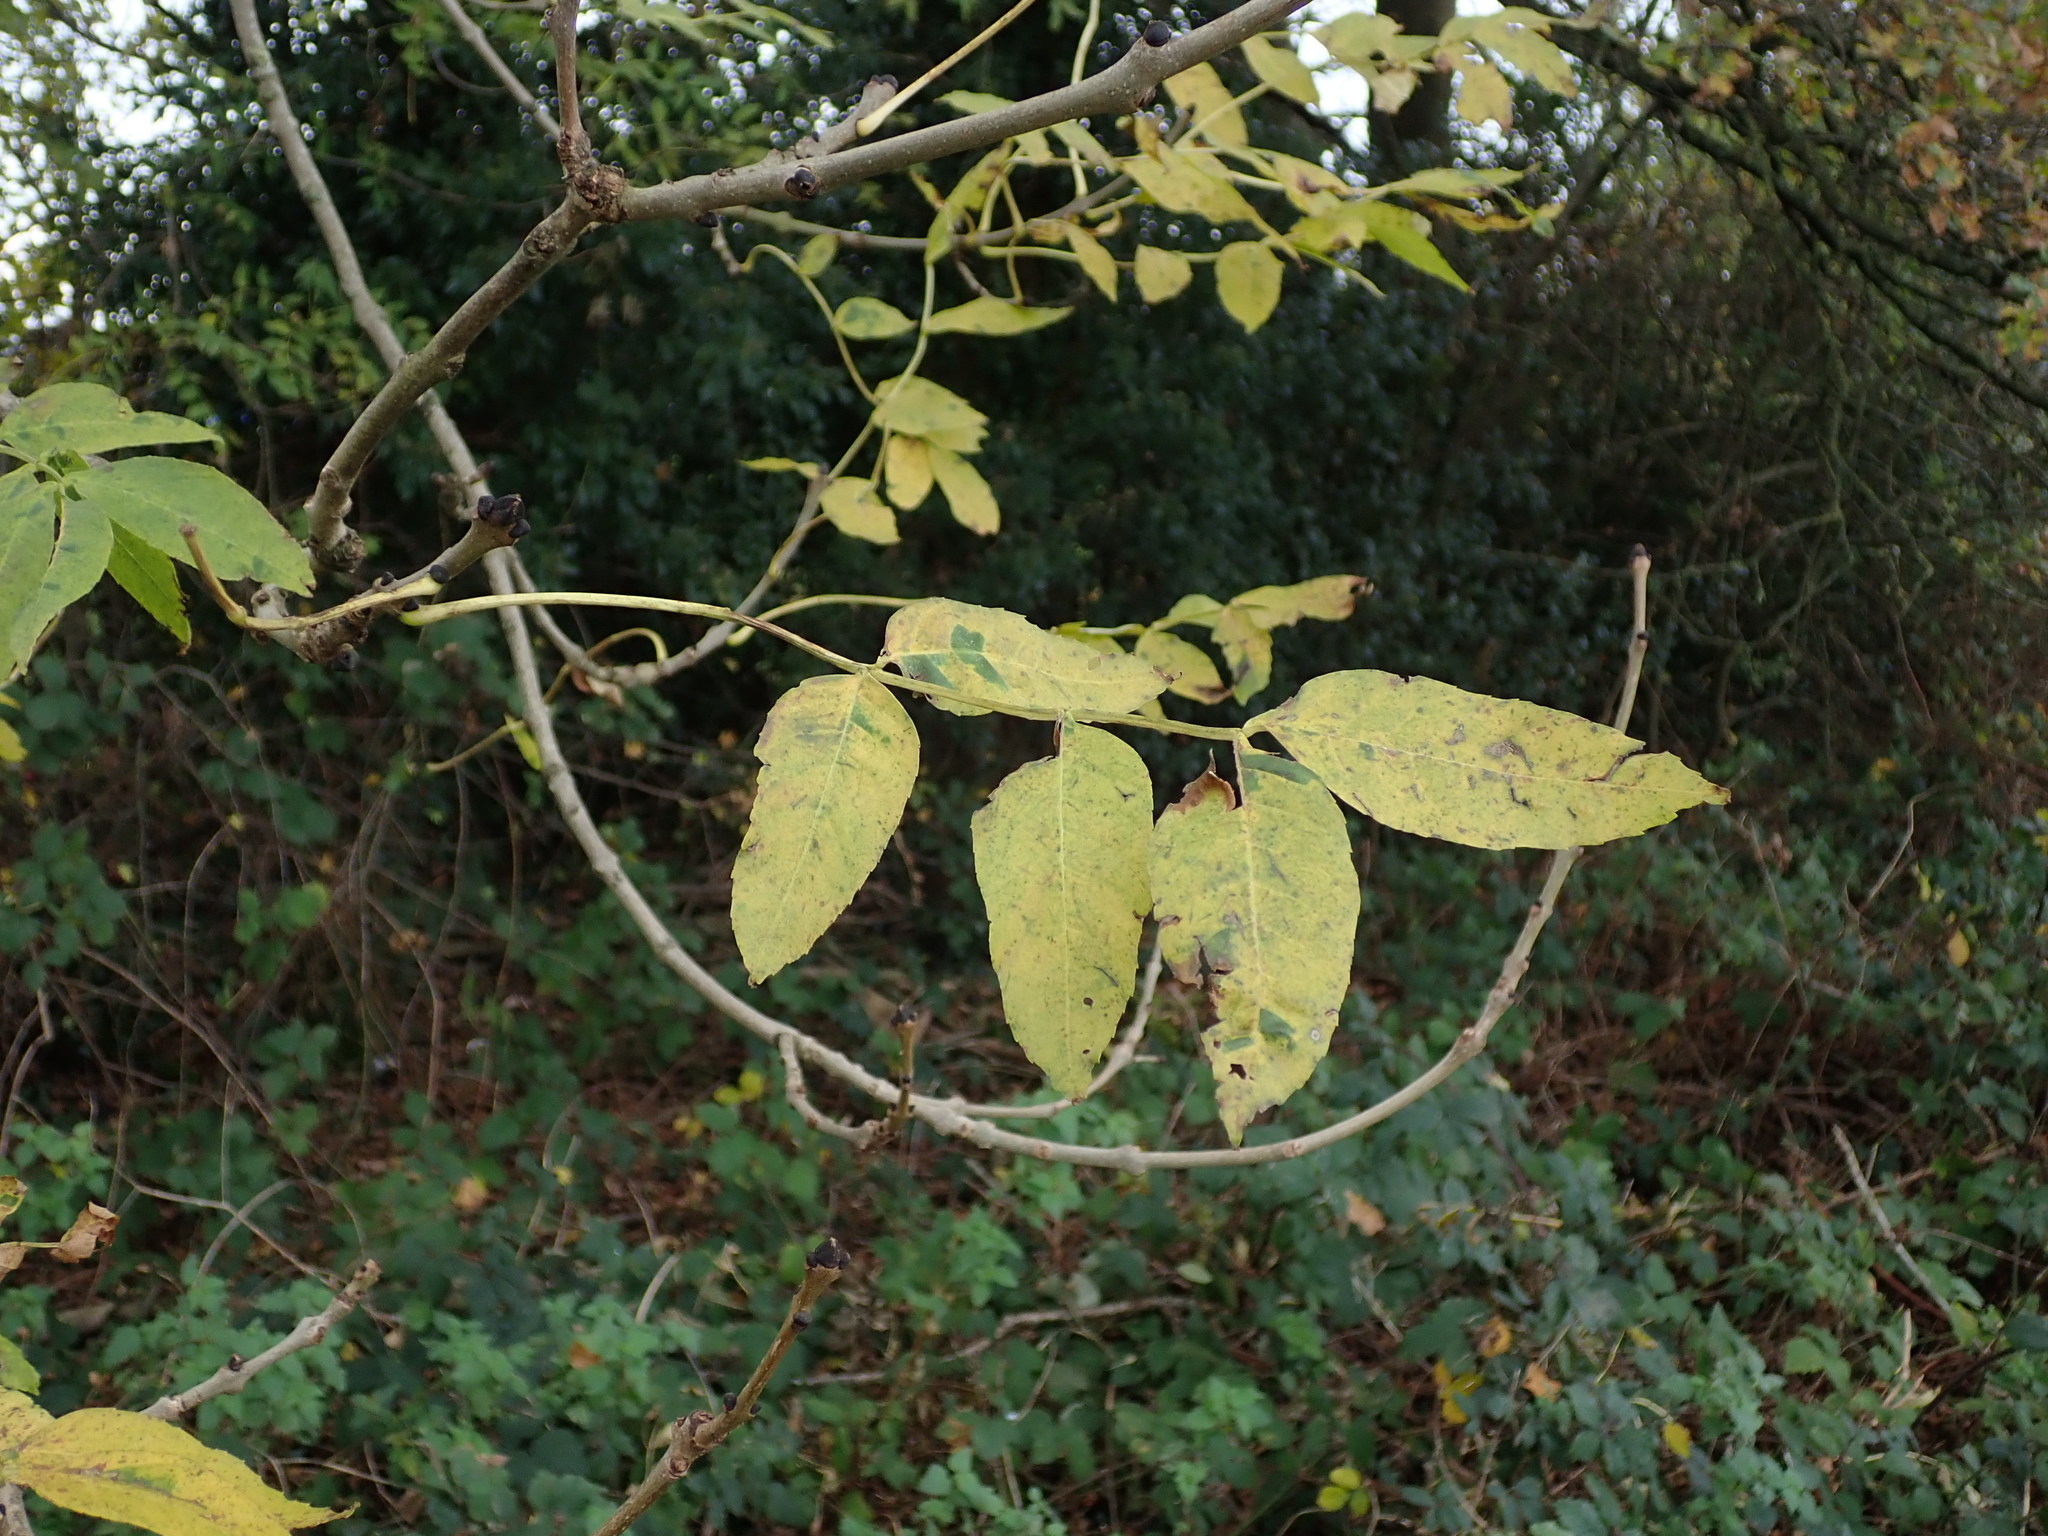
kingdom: Plantae
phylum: Tracheophyta
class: Magnoliopsida
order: Lamiales
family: Oleaceae
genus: Fraxinus
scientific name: Fraxinus excelsior
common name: European ash
